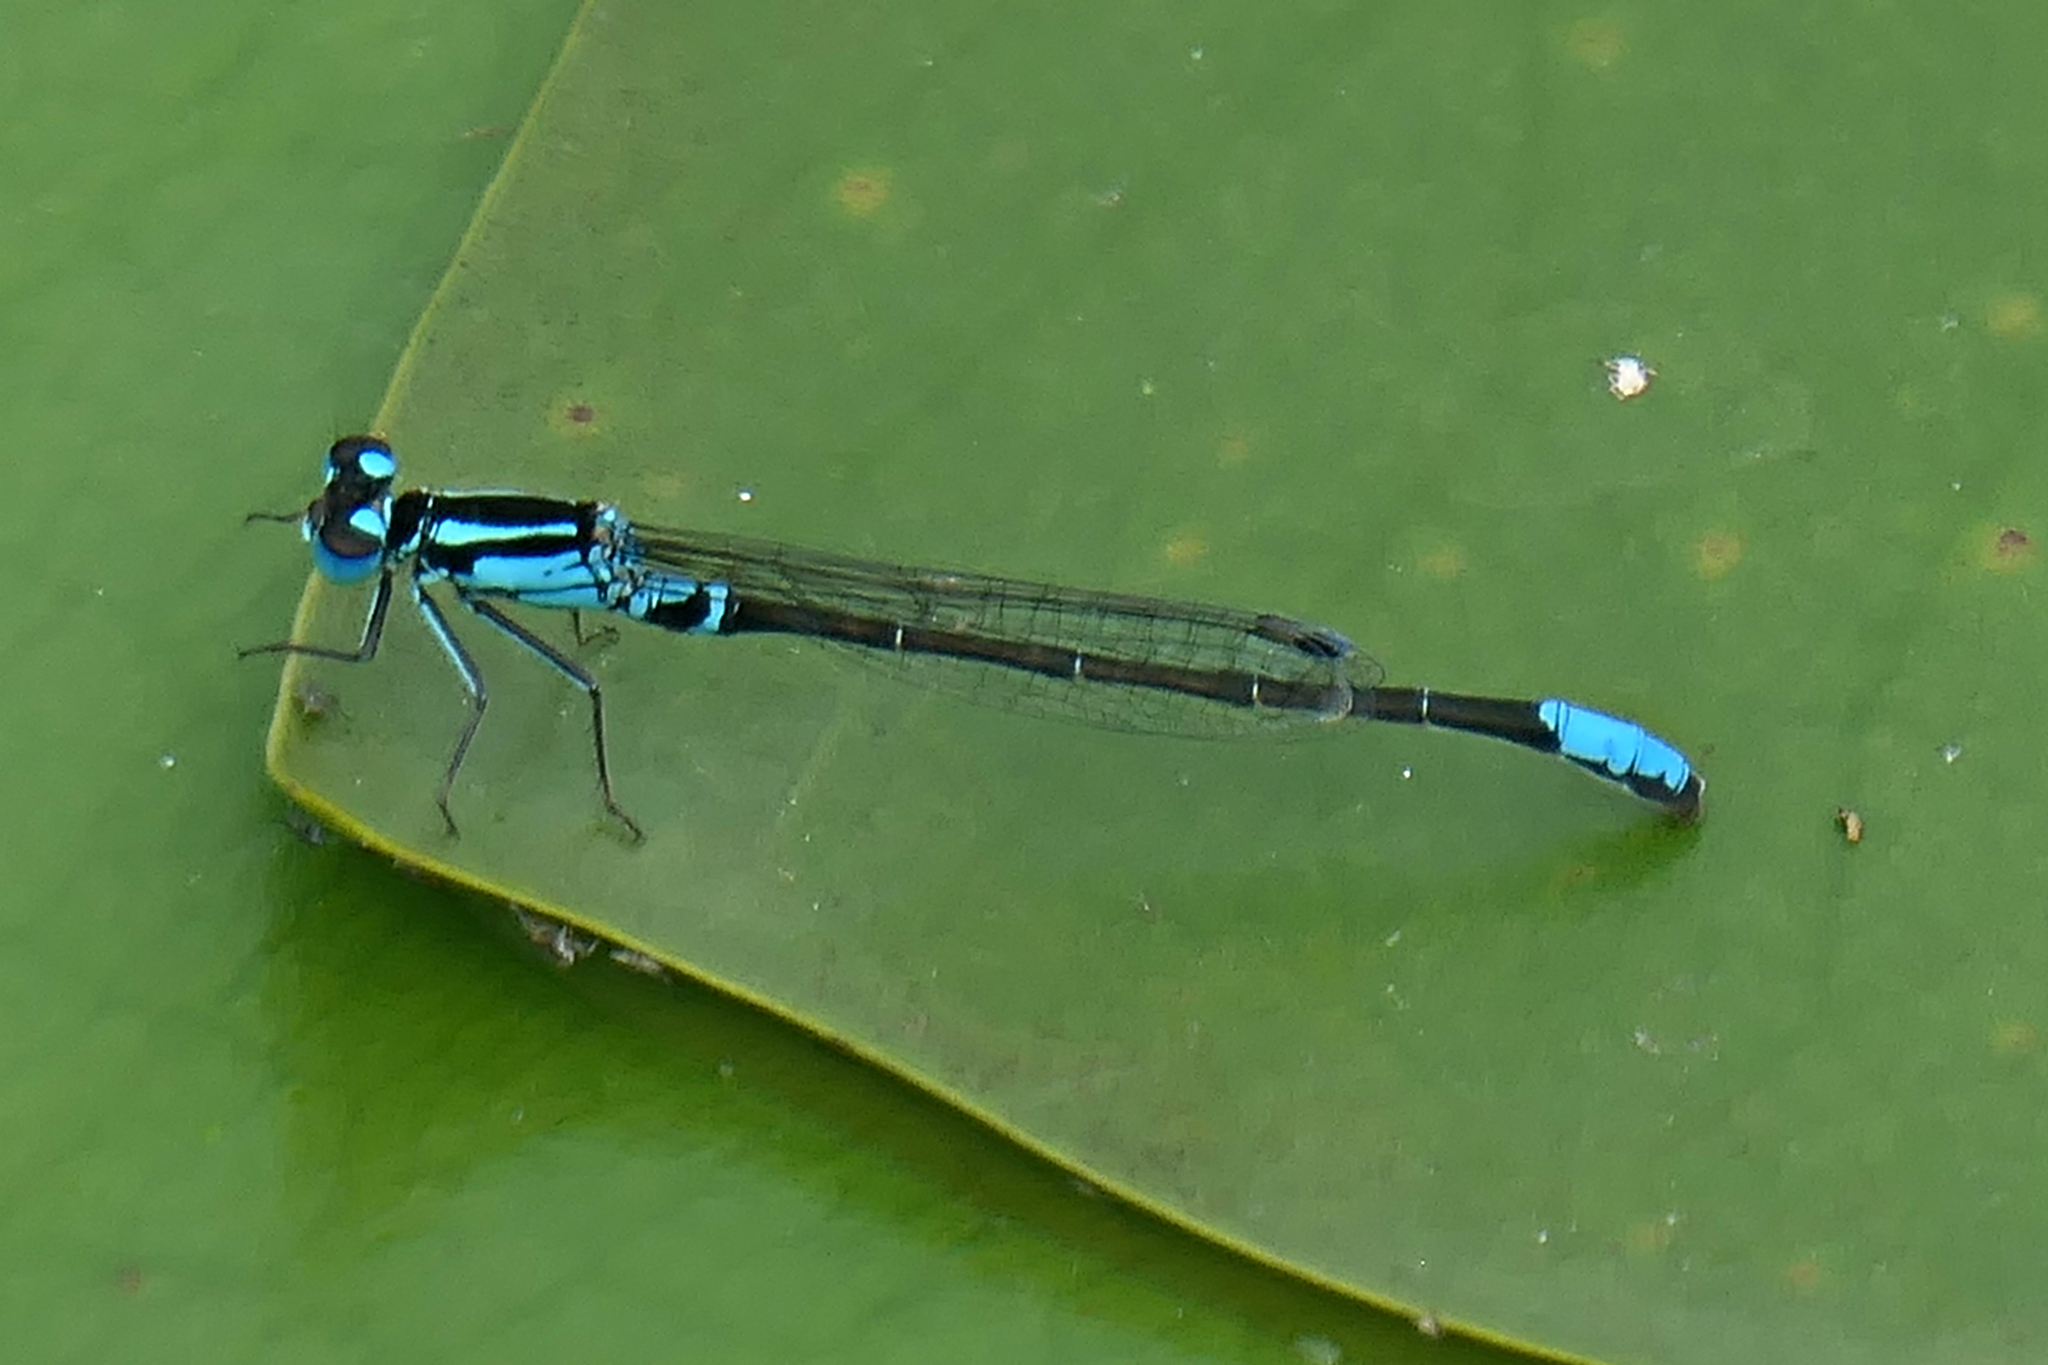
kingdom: Animalia
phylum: Arthropoda
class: Insecta
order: Odonata
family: Coenagrionidae
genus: Ischnura
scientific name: Ischnura kellicotti
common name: Lilypad forktail
